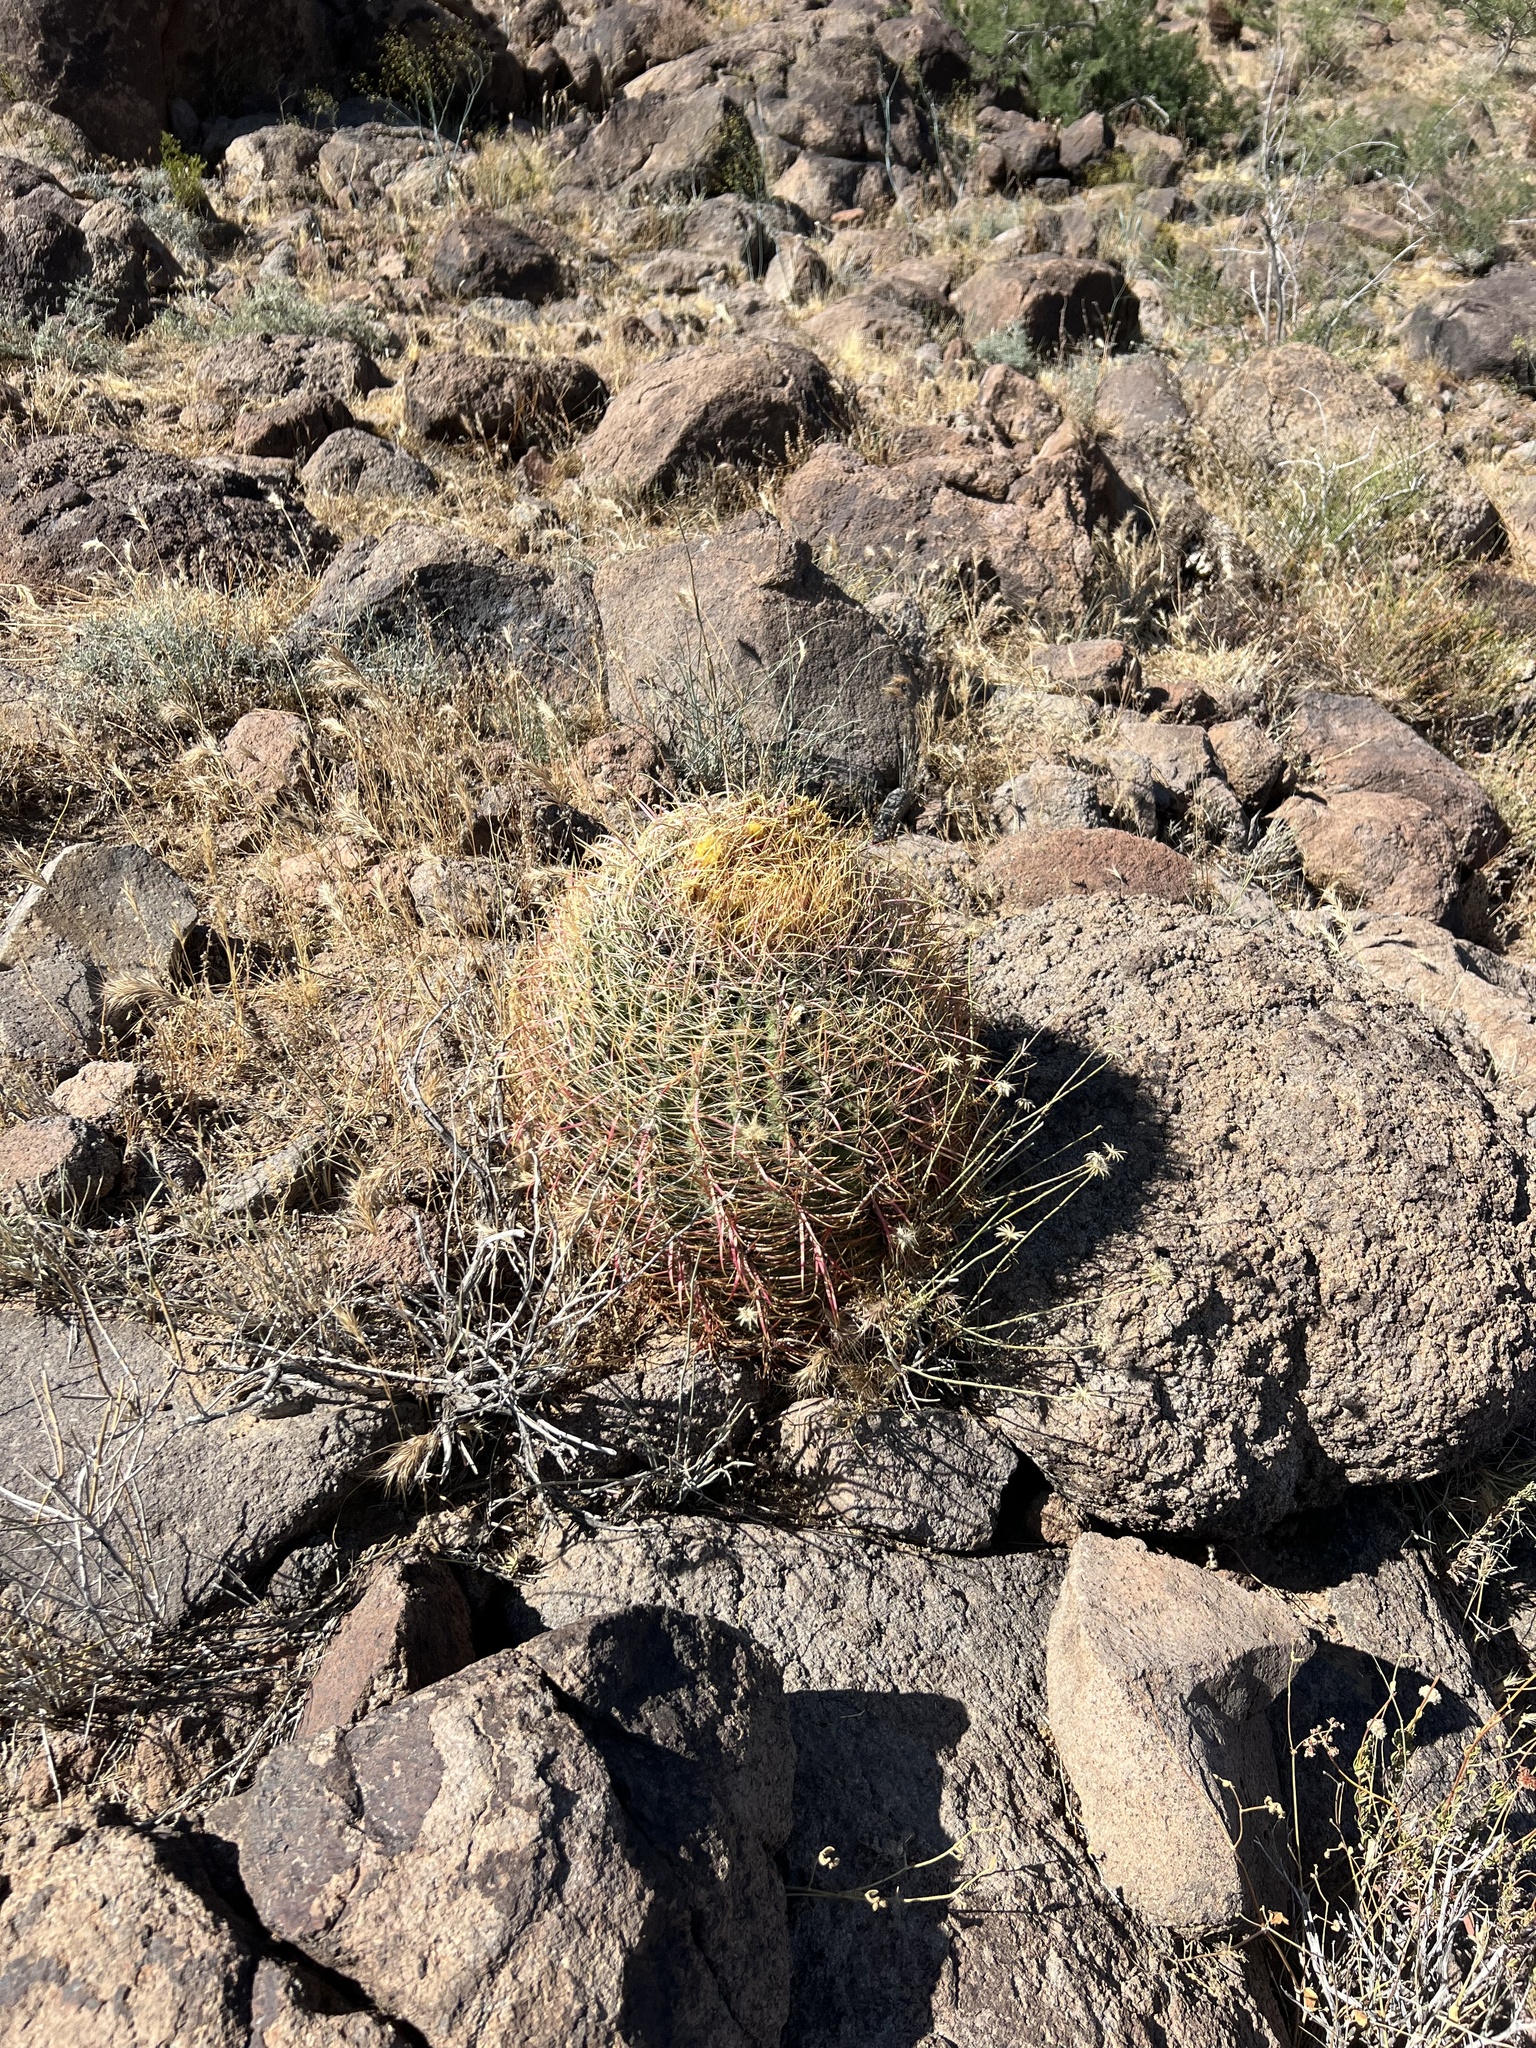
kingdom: Plantae
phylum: Tracheophyta
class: Magnoliopsida
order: Caryophyllales
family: Cactaceae
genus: Ferocactus
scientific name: Ferocactus cylindraceus
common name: California barrel cactus
